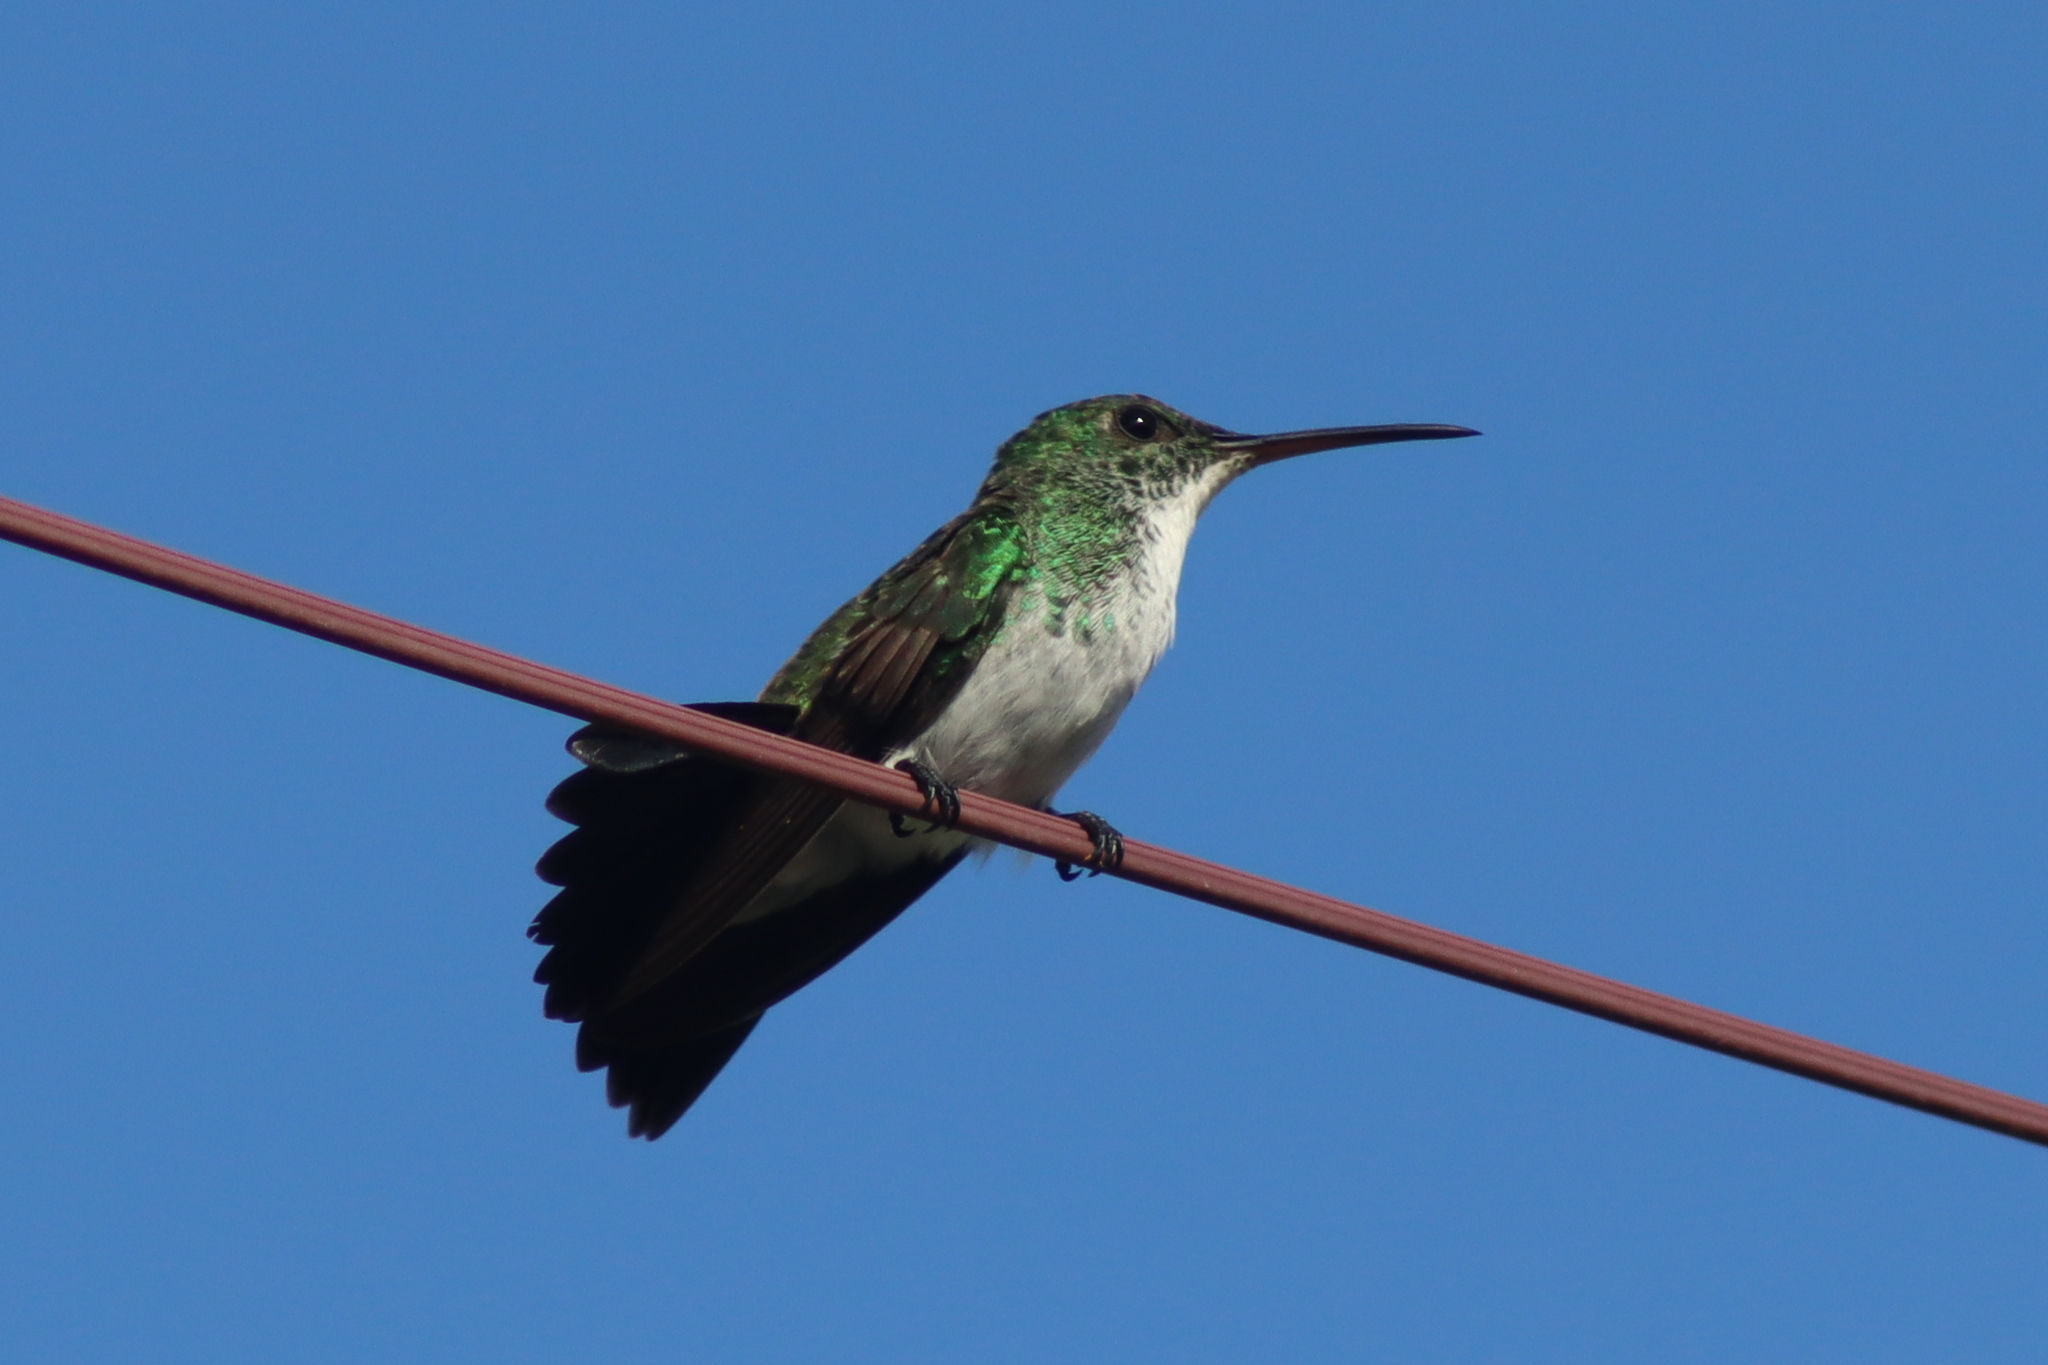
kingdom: Animalia
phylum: Chordata
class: Aves
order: Apodiformes
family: Trochilidae
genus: Chrysuronia
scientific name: Chrysuronia leucogaster
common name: Plain-bellied emerald
